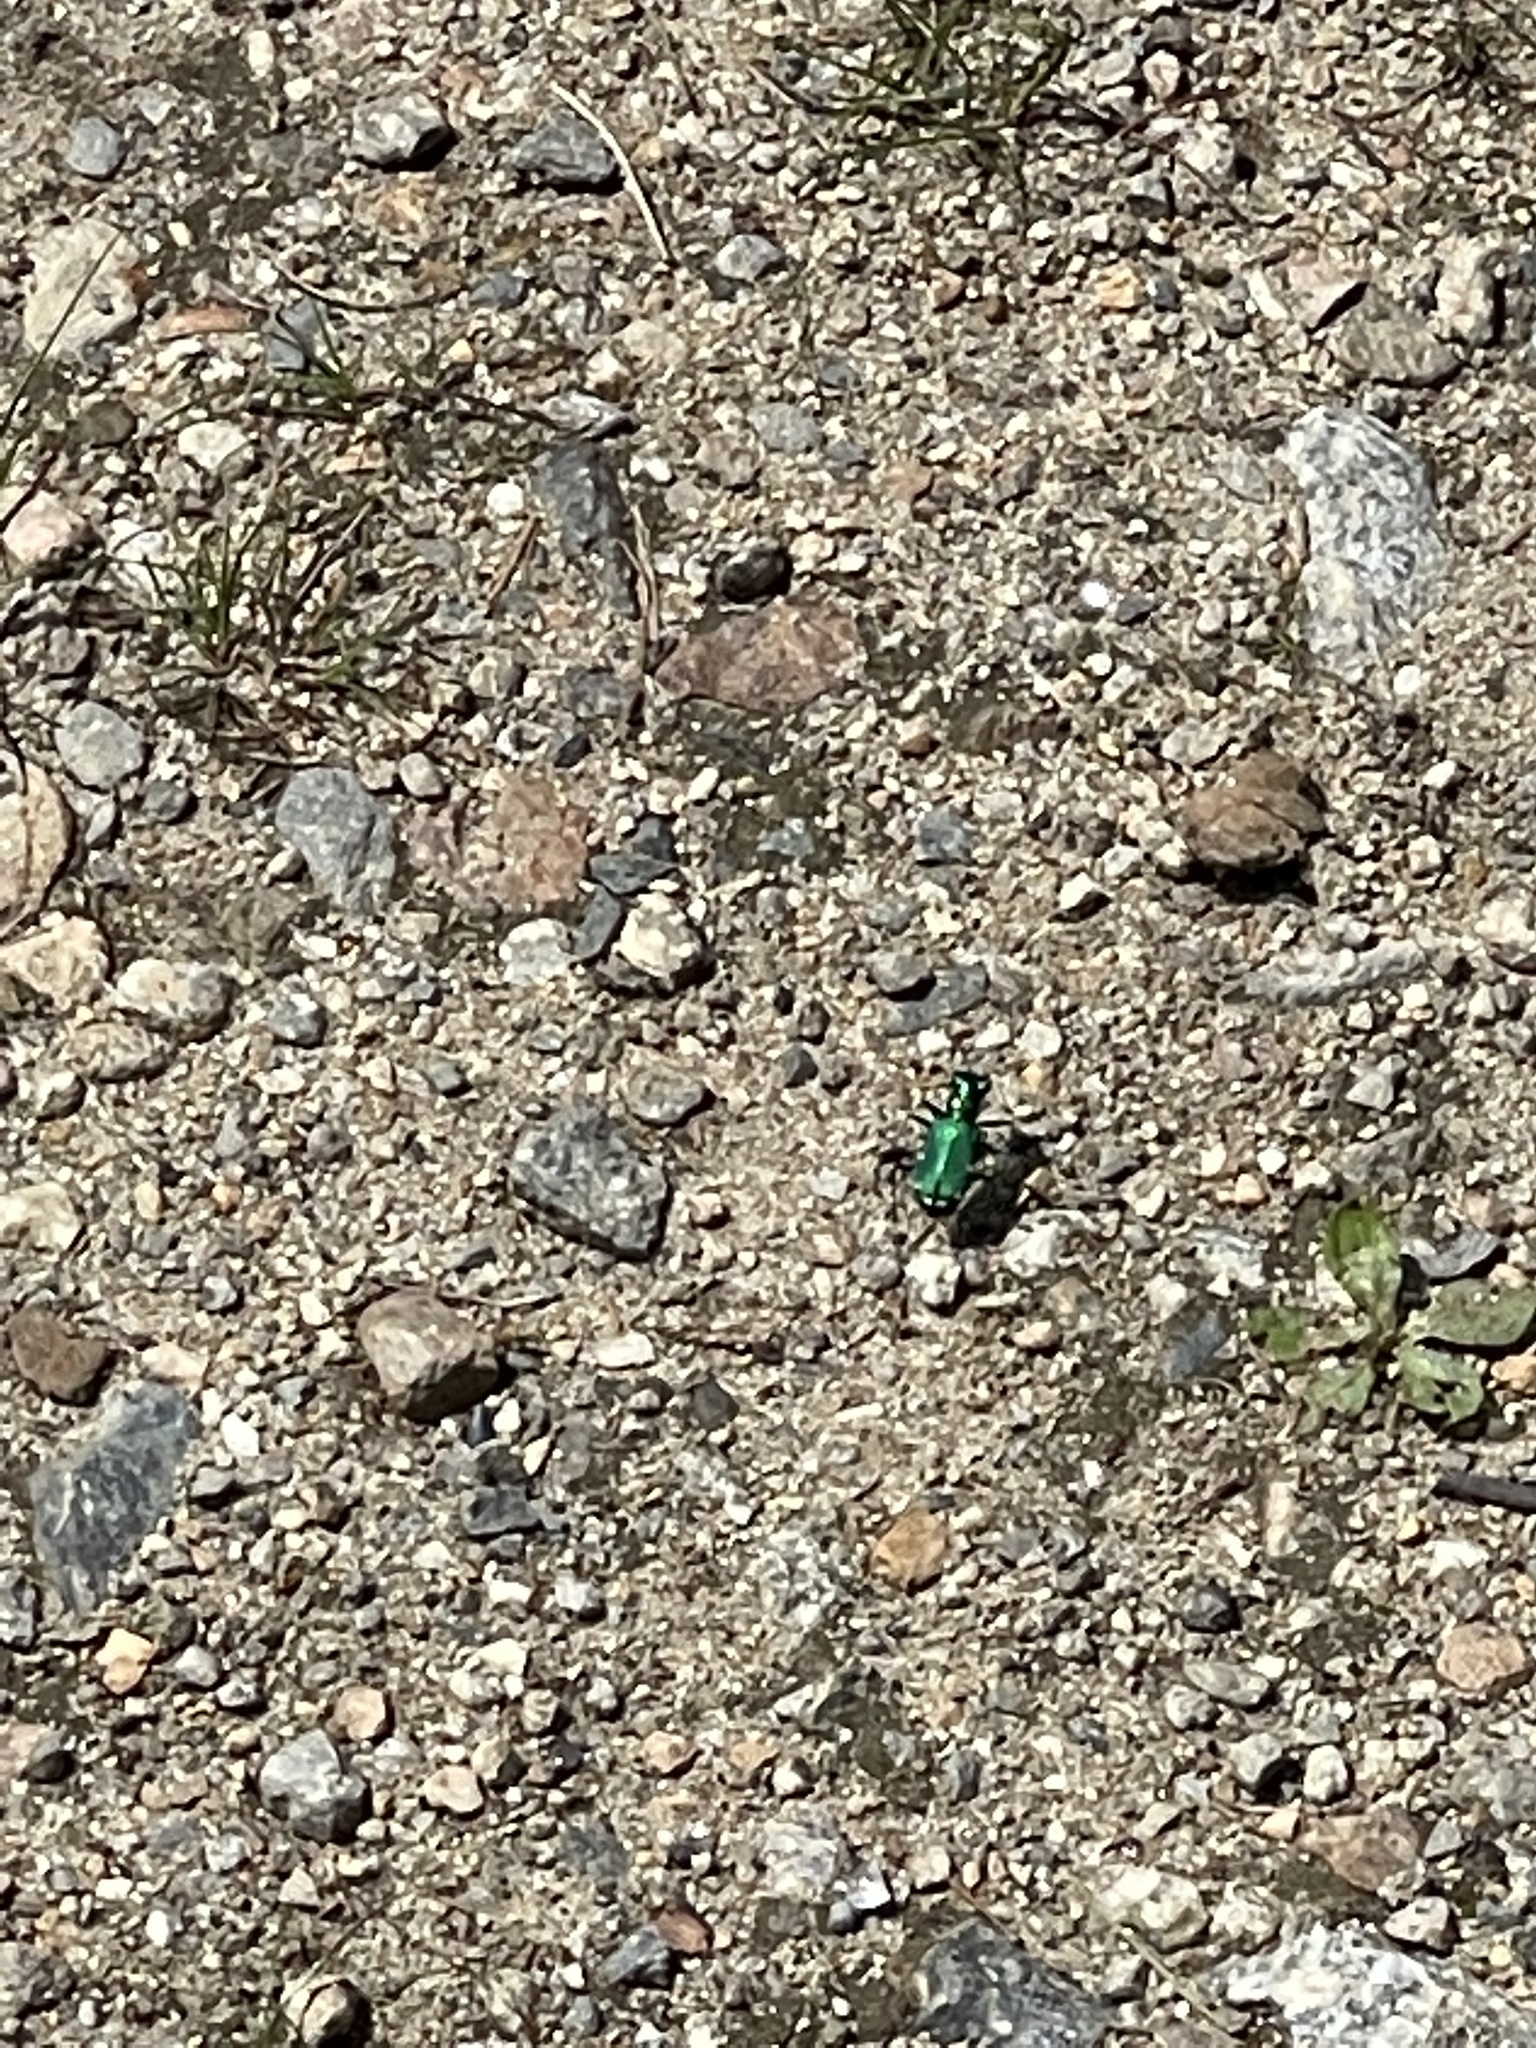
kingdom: Animalia
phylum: Arthropoda
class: Insecta
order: Coleoptera
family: Carabidae
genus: Cicindela
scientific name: Cicindela sexguttata
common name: Six-spotted tiger beetle
